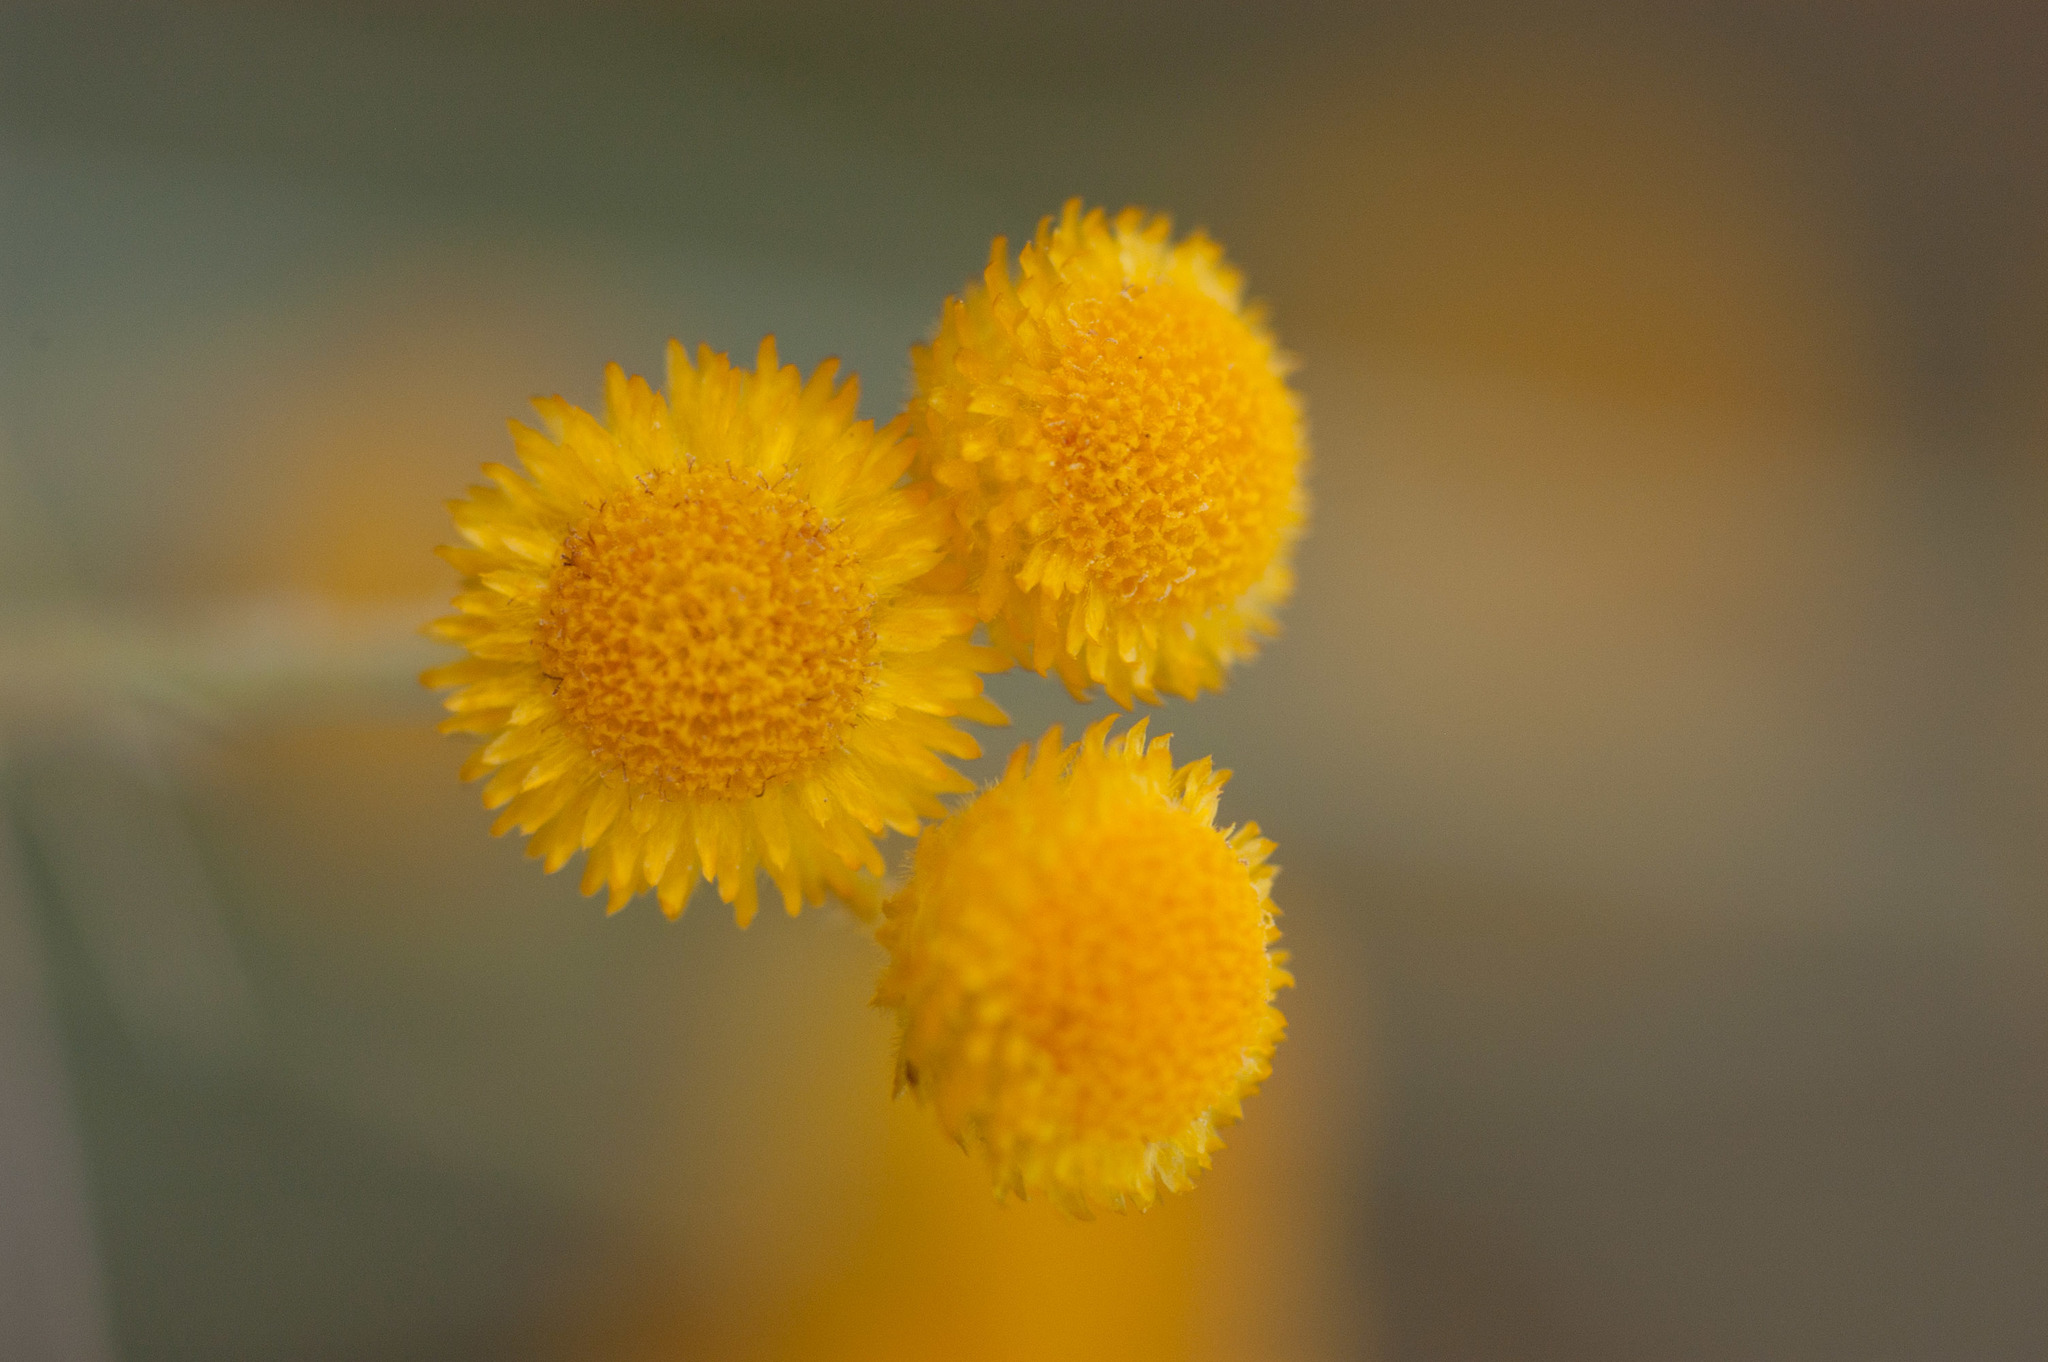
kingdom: Plantae
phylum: Tracheophyta
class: Magnoliopsida
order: Asterales
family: Asteraceae
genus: Chrysocephalum
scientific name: Chrysocephalum apiculatum
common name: Common everlasting
